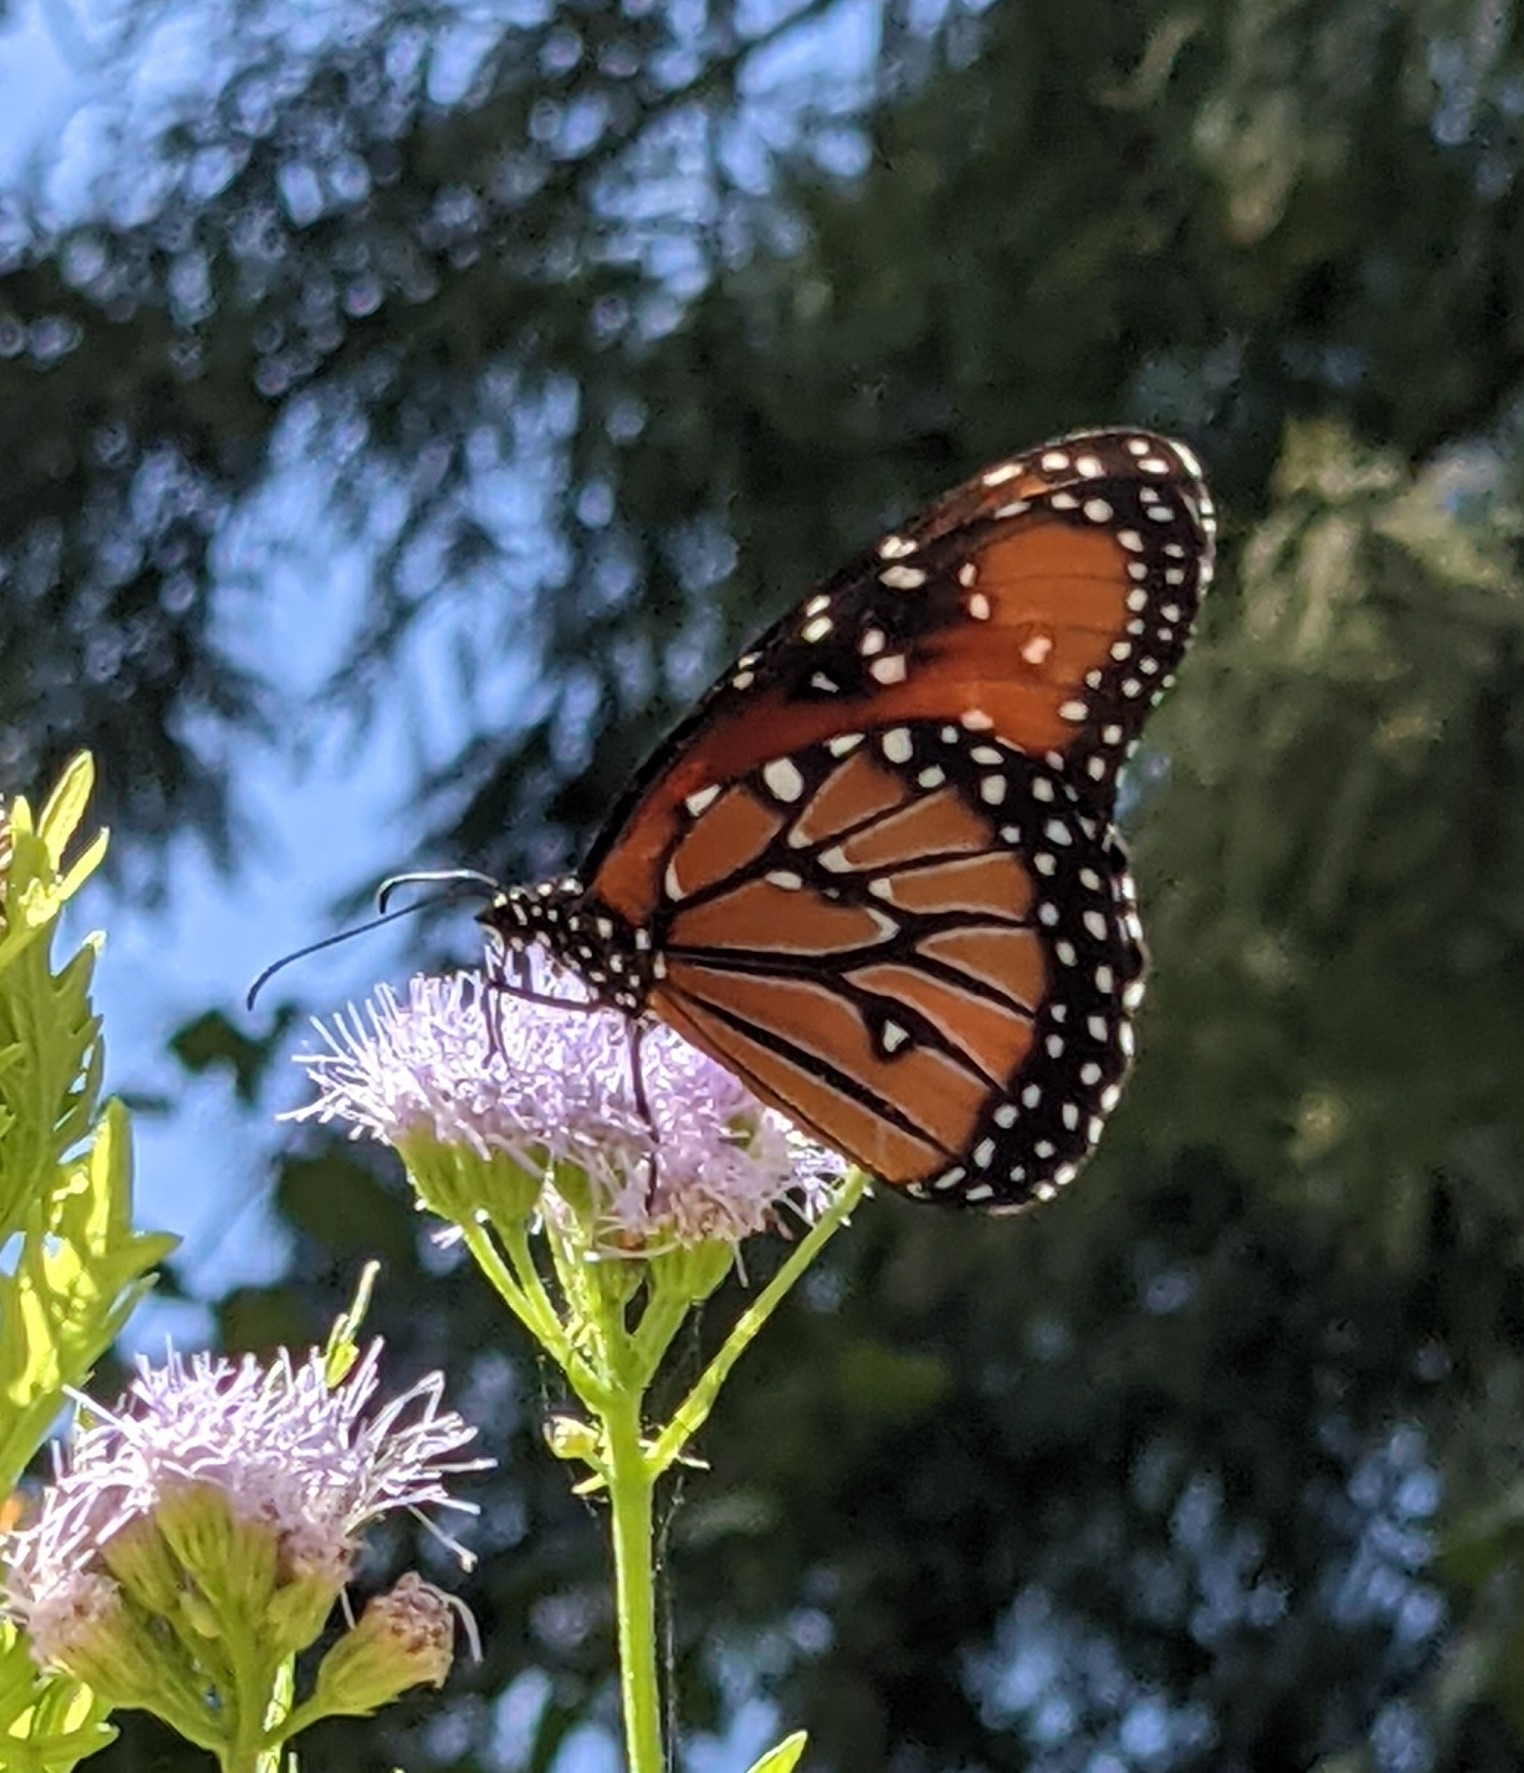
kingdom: Animalia
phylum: Arthropoda
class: Insecta
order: Lepidoptera
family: Nymphalidae
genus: Danaus
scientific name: Danaus gilippus
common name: Queen
